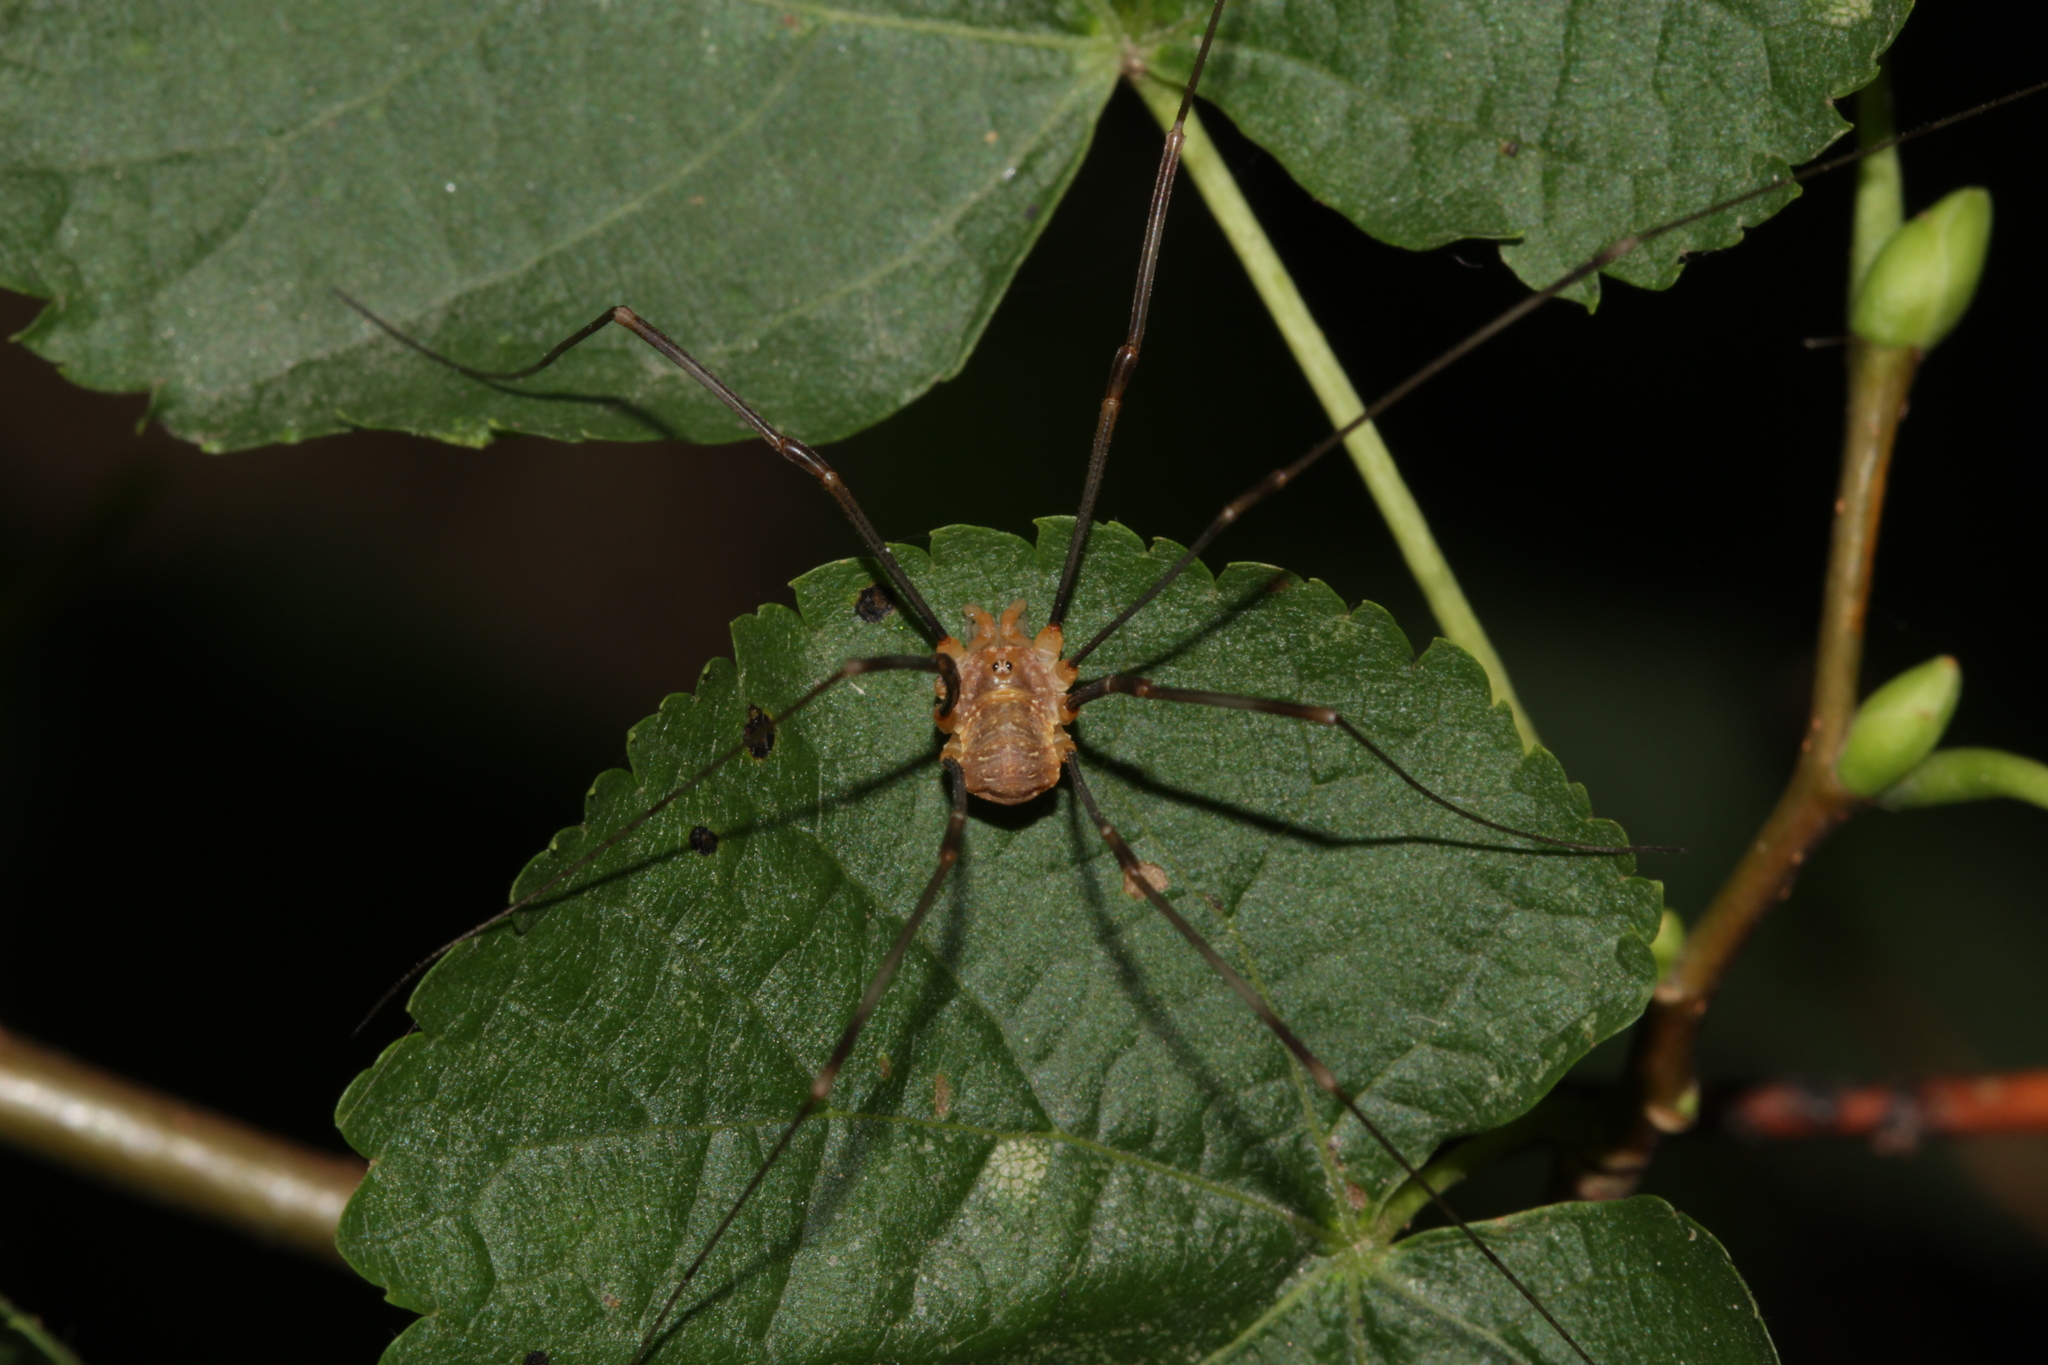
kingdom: Animalia
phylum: Arthropoda
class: Arachnida
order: Opiliones
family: Phalangiidae
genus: Opilio
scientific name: Opilio canestrinii
